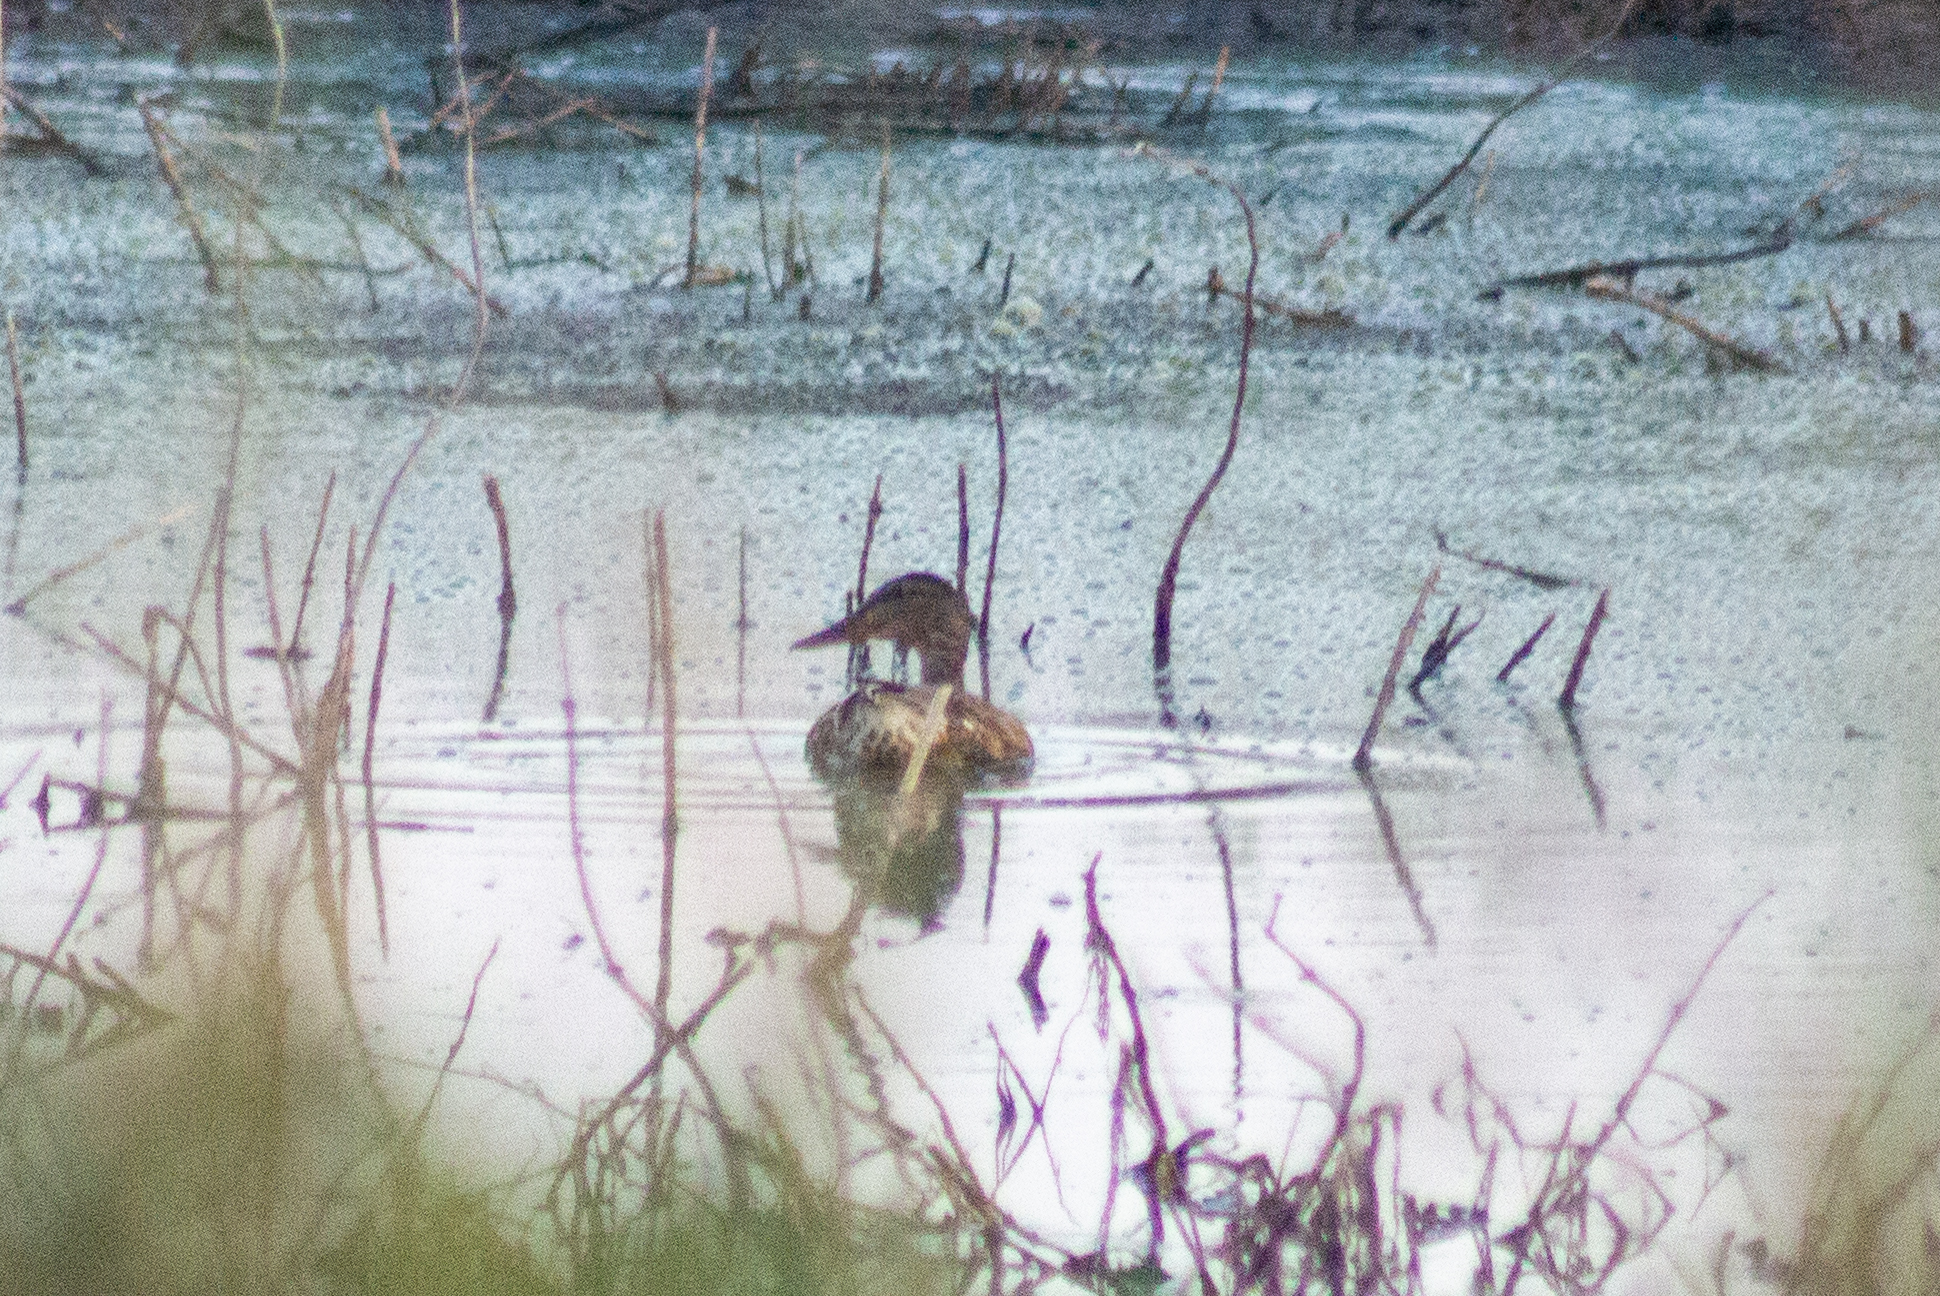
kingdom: Animalia
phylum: Chordata
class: Aves
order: Anseriformes
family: Anatidae
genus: Anas
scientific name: Anas platyrhynchos
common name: Mallard
